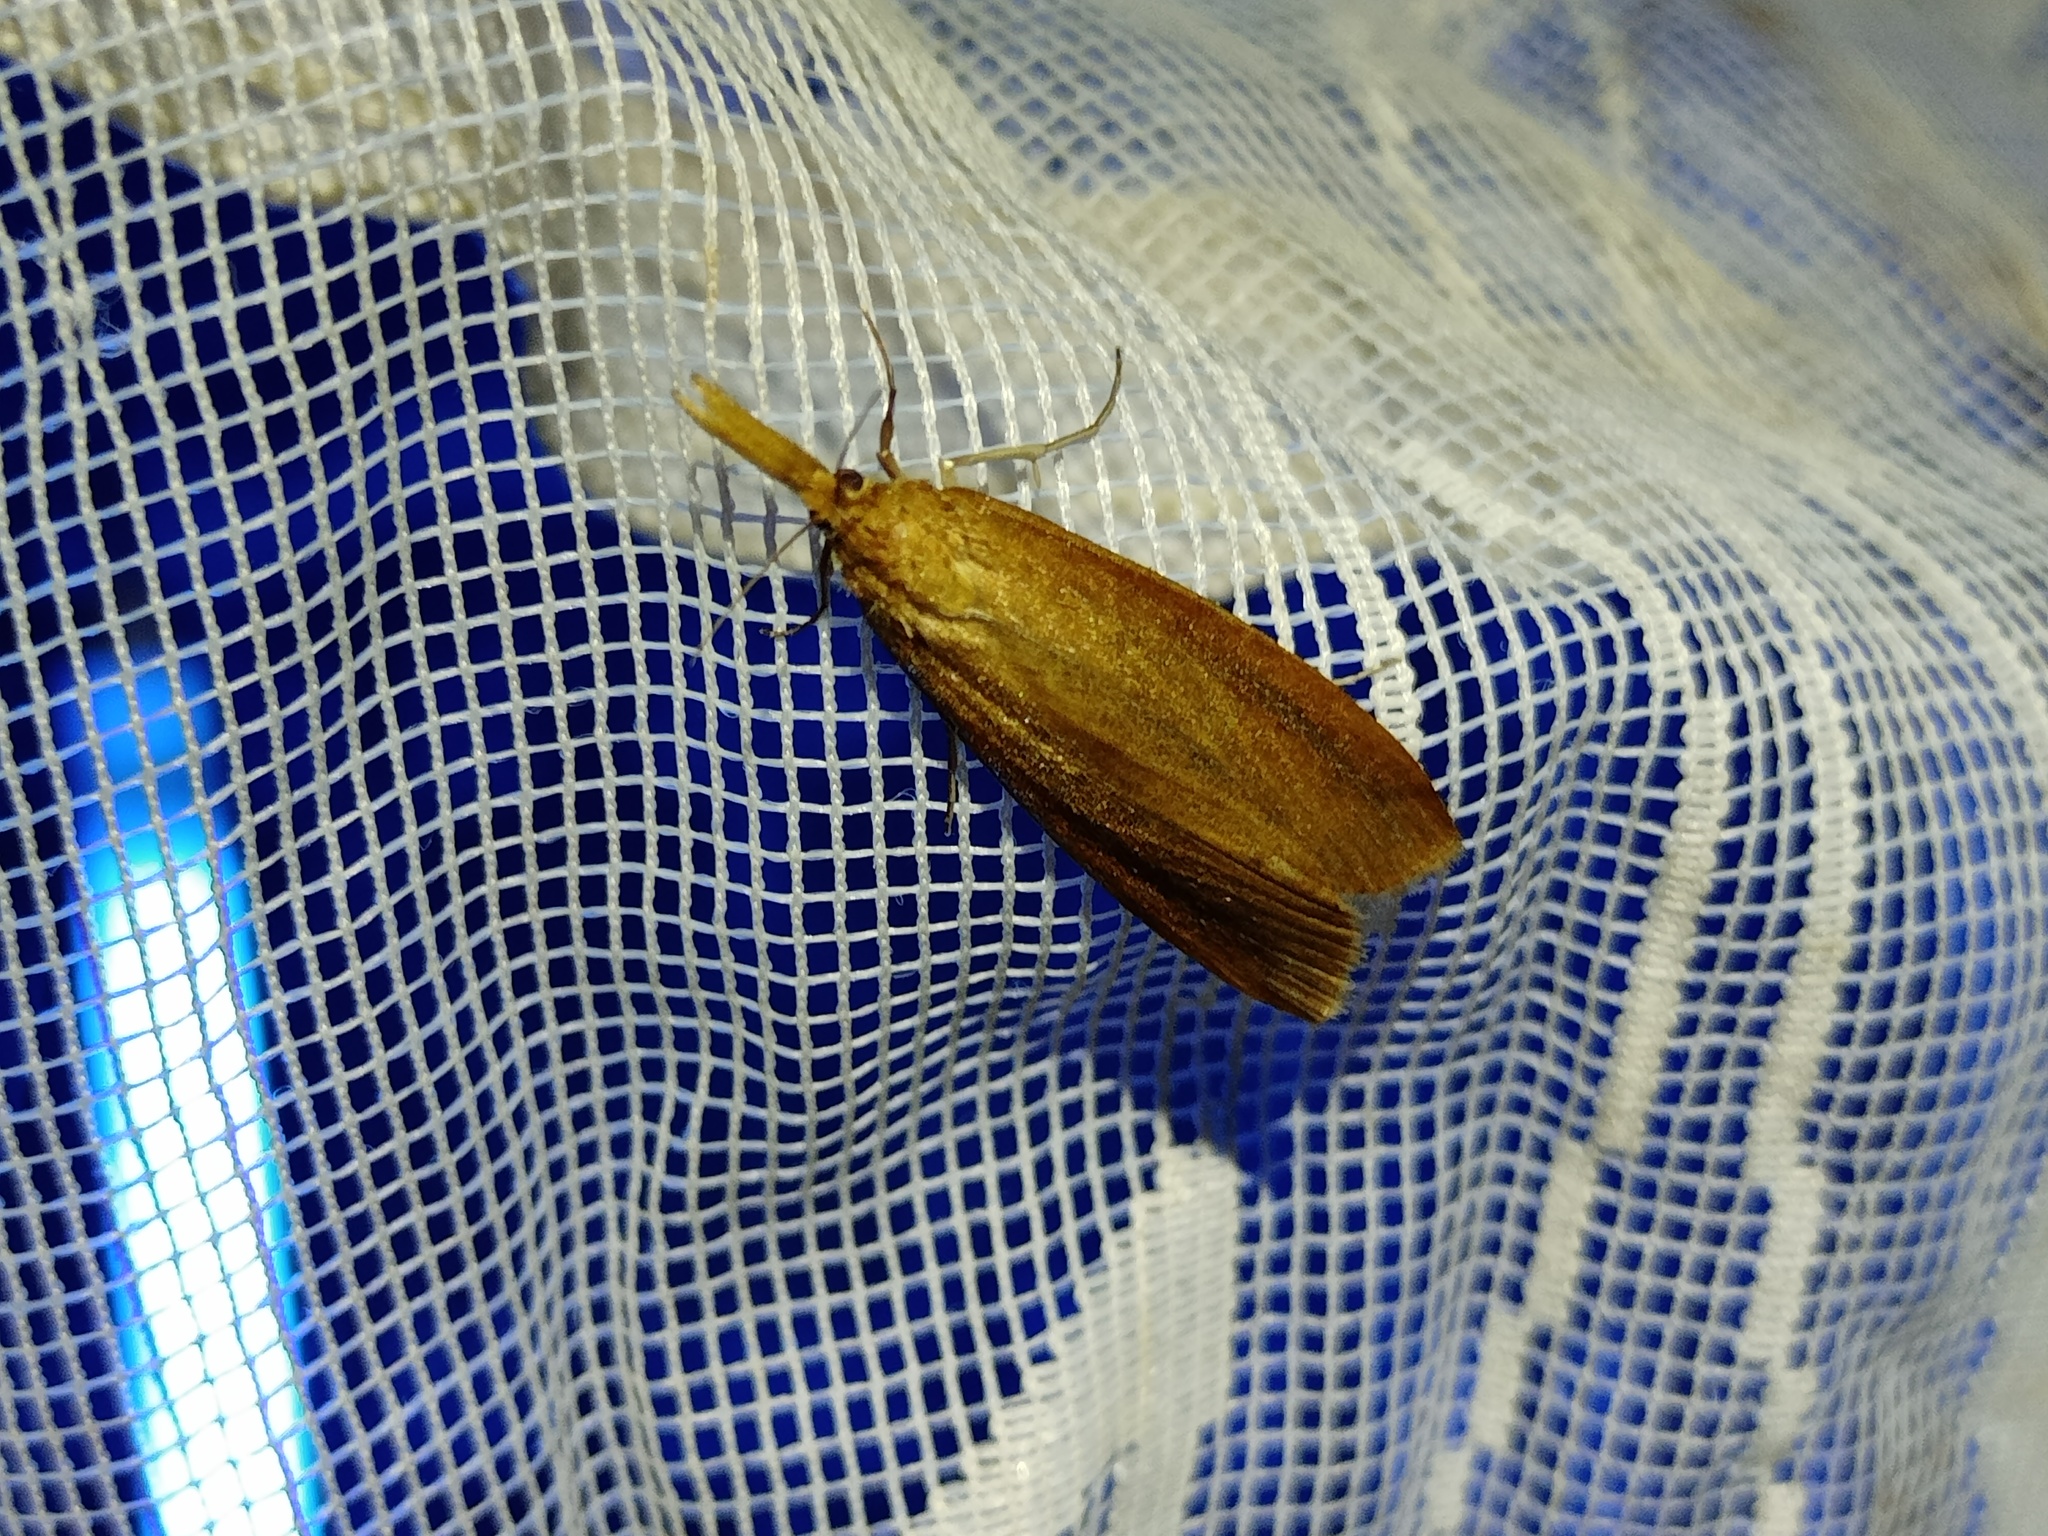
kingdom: Animalia
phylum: Arthropoda
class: Insecta
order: Lepidoptera
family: Crambidae
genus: Schoenobius
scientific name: Schoenobius gigantella
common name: Giant water-veneer
